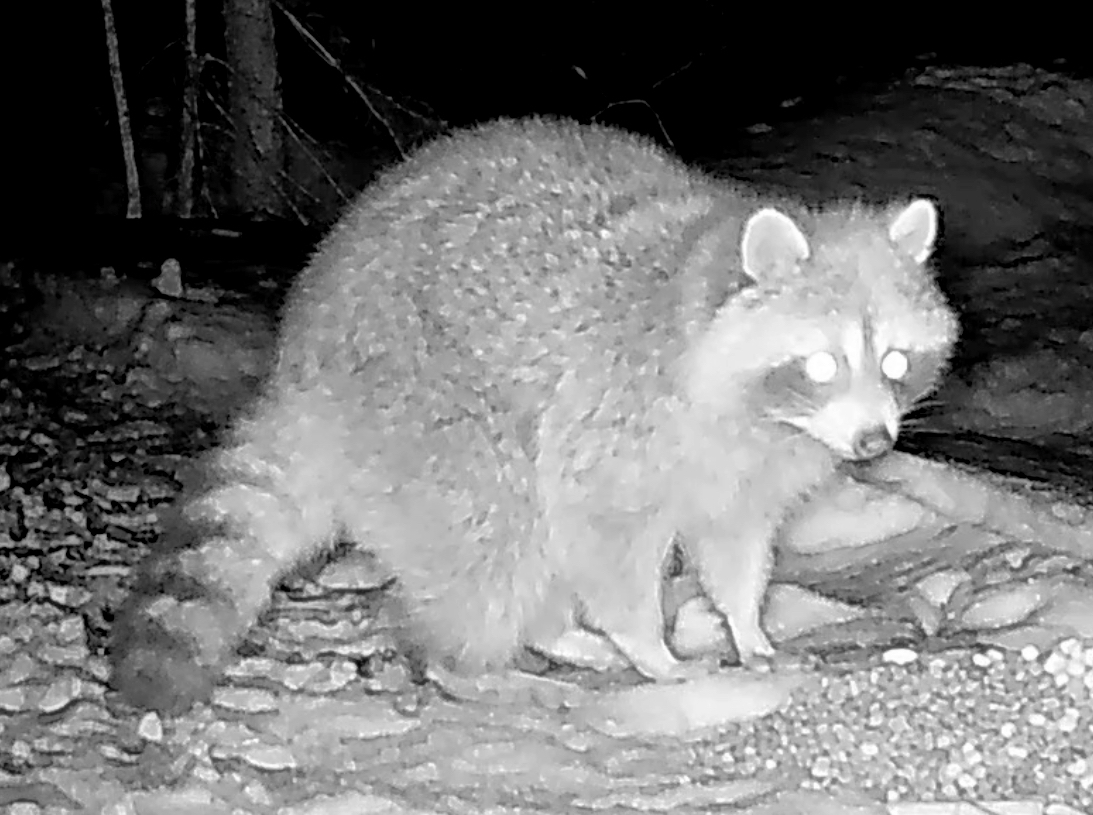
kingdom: Animalia
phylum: Chordata
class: Mammalia
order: Carnivora
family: Procyonidae
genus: Procyon
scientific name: Procyon lotor
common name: Raccoon
